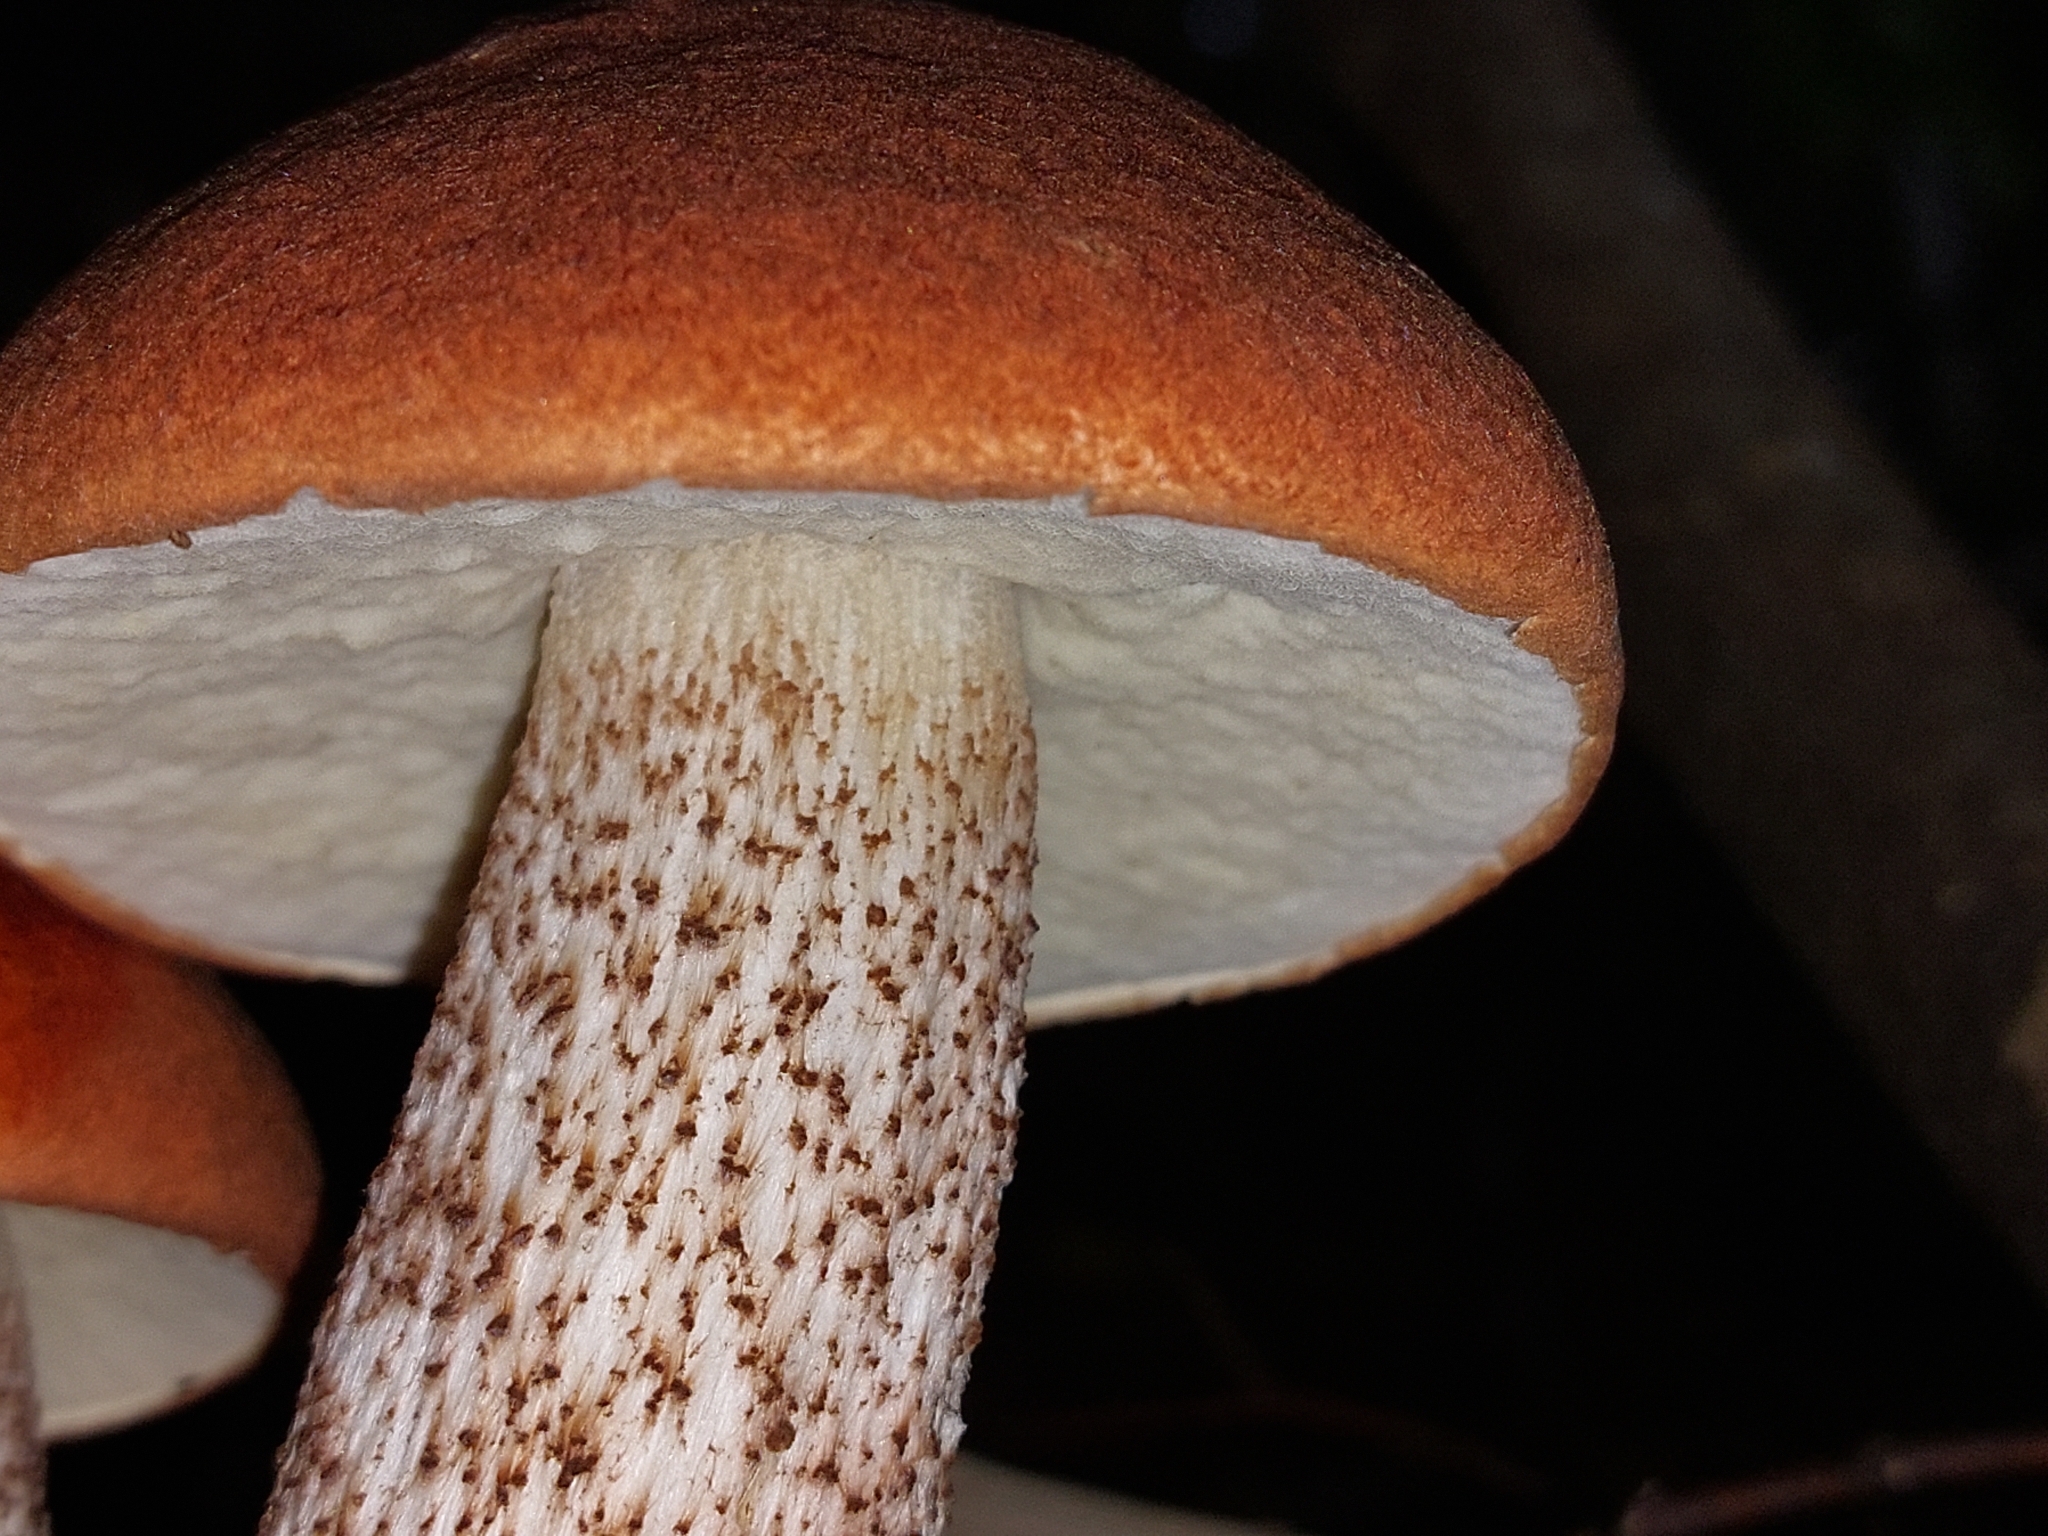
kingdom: Fungi
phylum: Basidiomycota
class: Agaricomycetes
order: Boletales
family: Boletaceae
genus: Leccinum
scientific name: Leccinum aurantiacum
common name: Orange bolete
